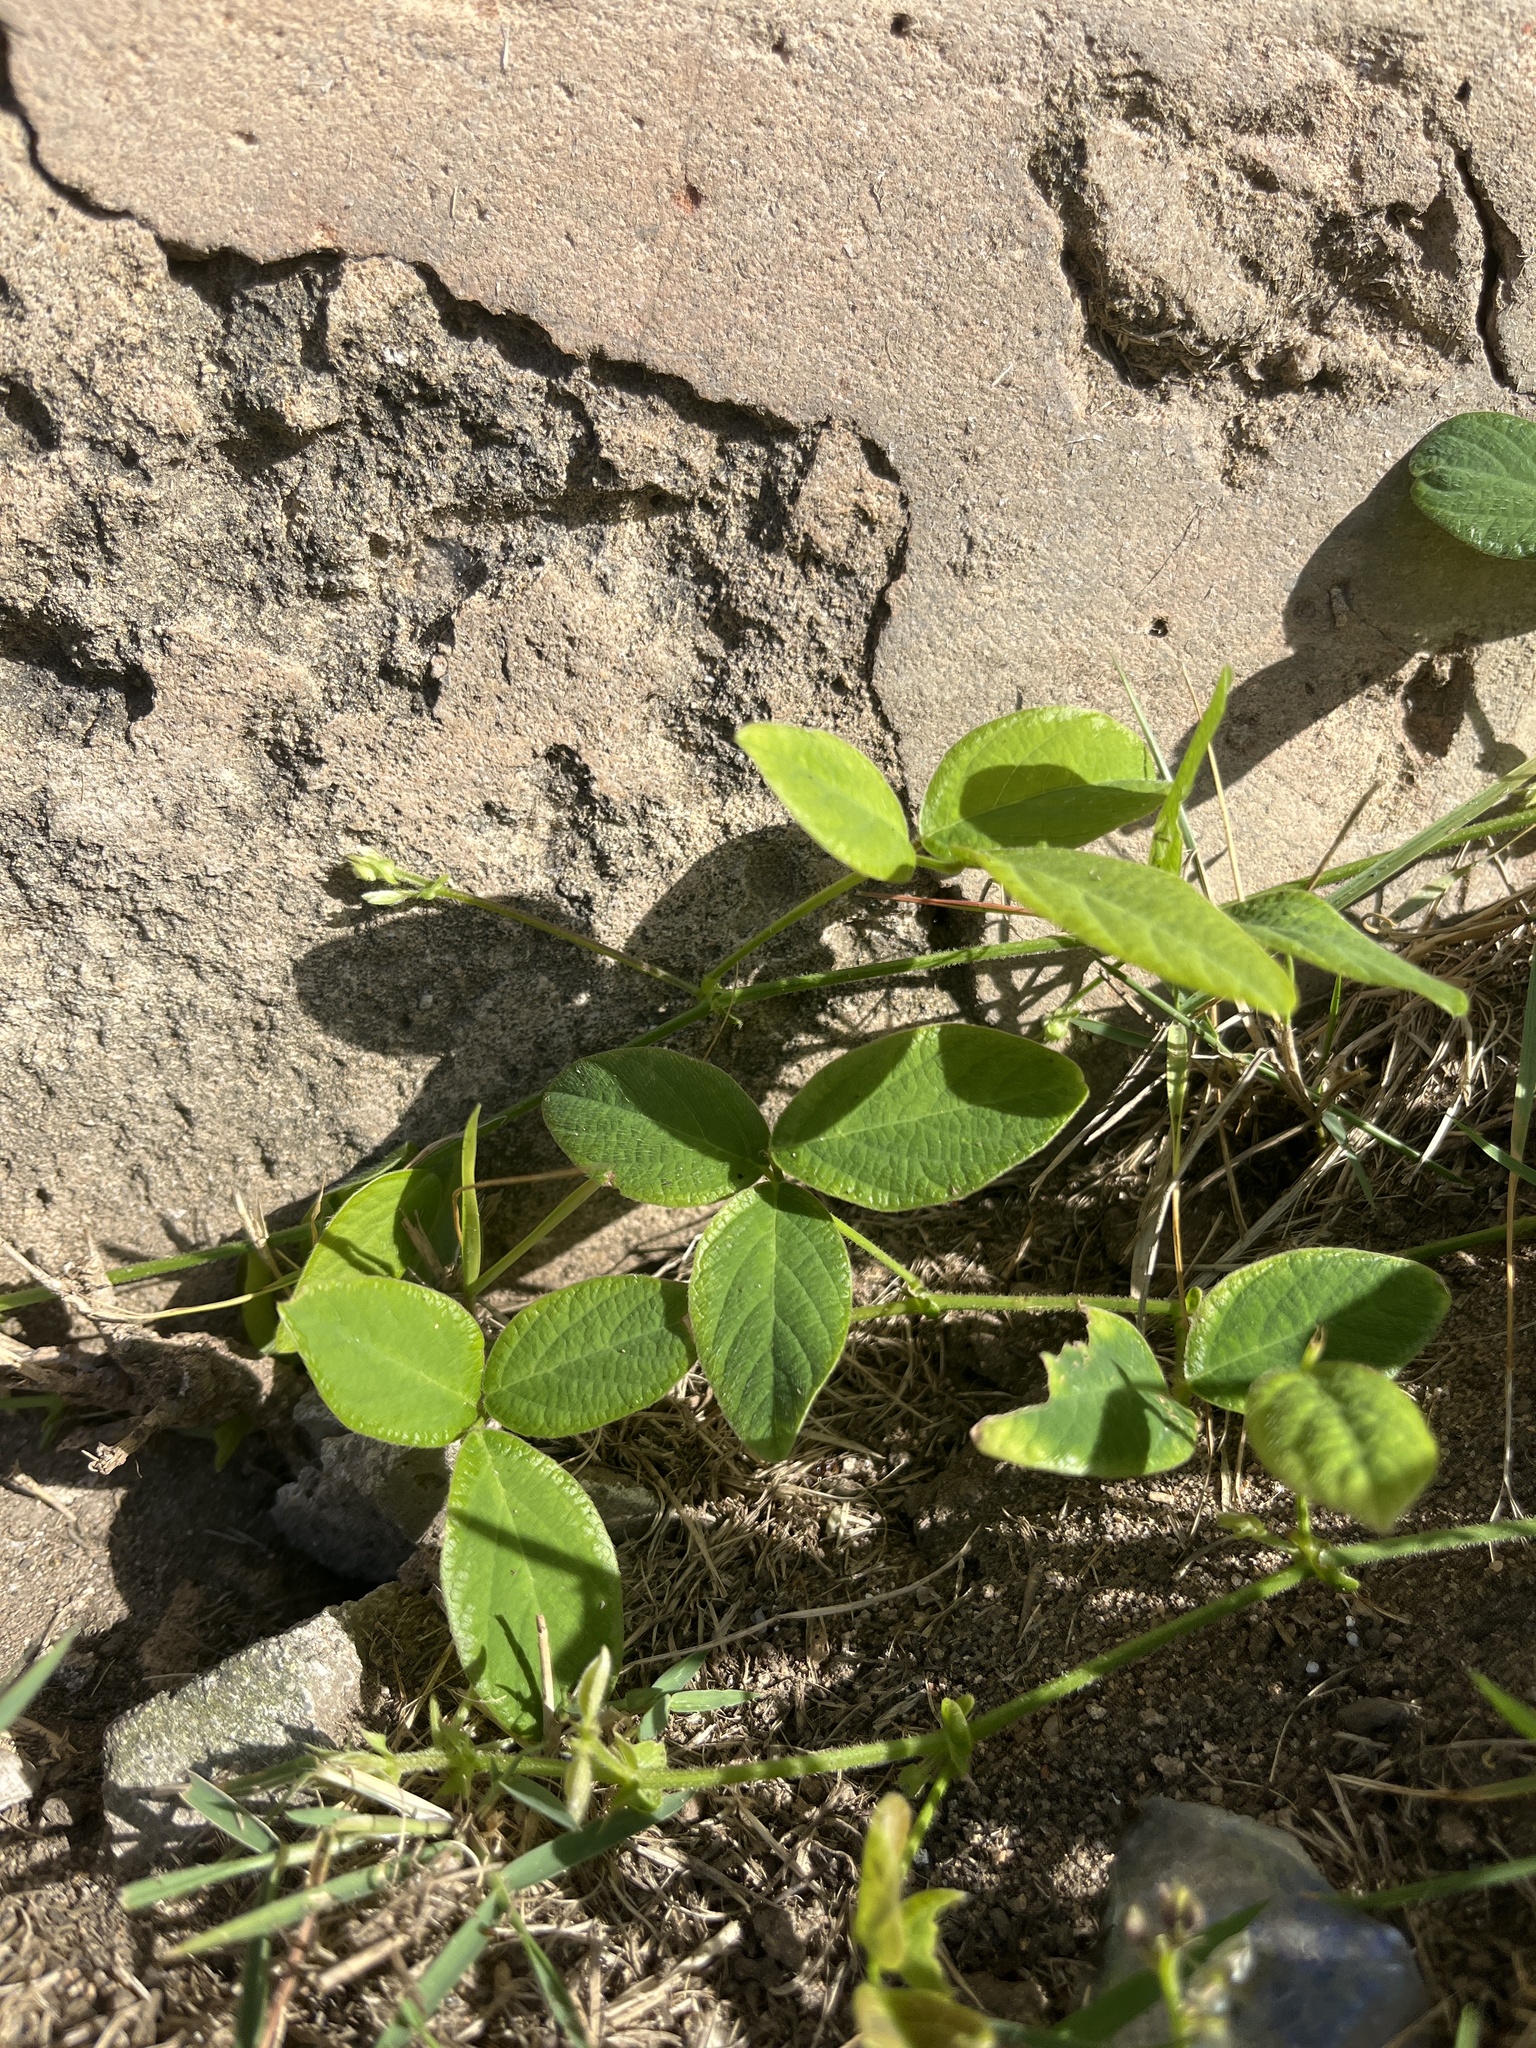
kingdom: Plantae
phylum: Tracheophyta
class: Magnoliopsida
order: Fabales
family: Fabaceae
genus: Teramnus
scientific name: Teramnus labialis
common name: Blue wiss
